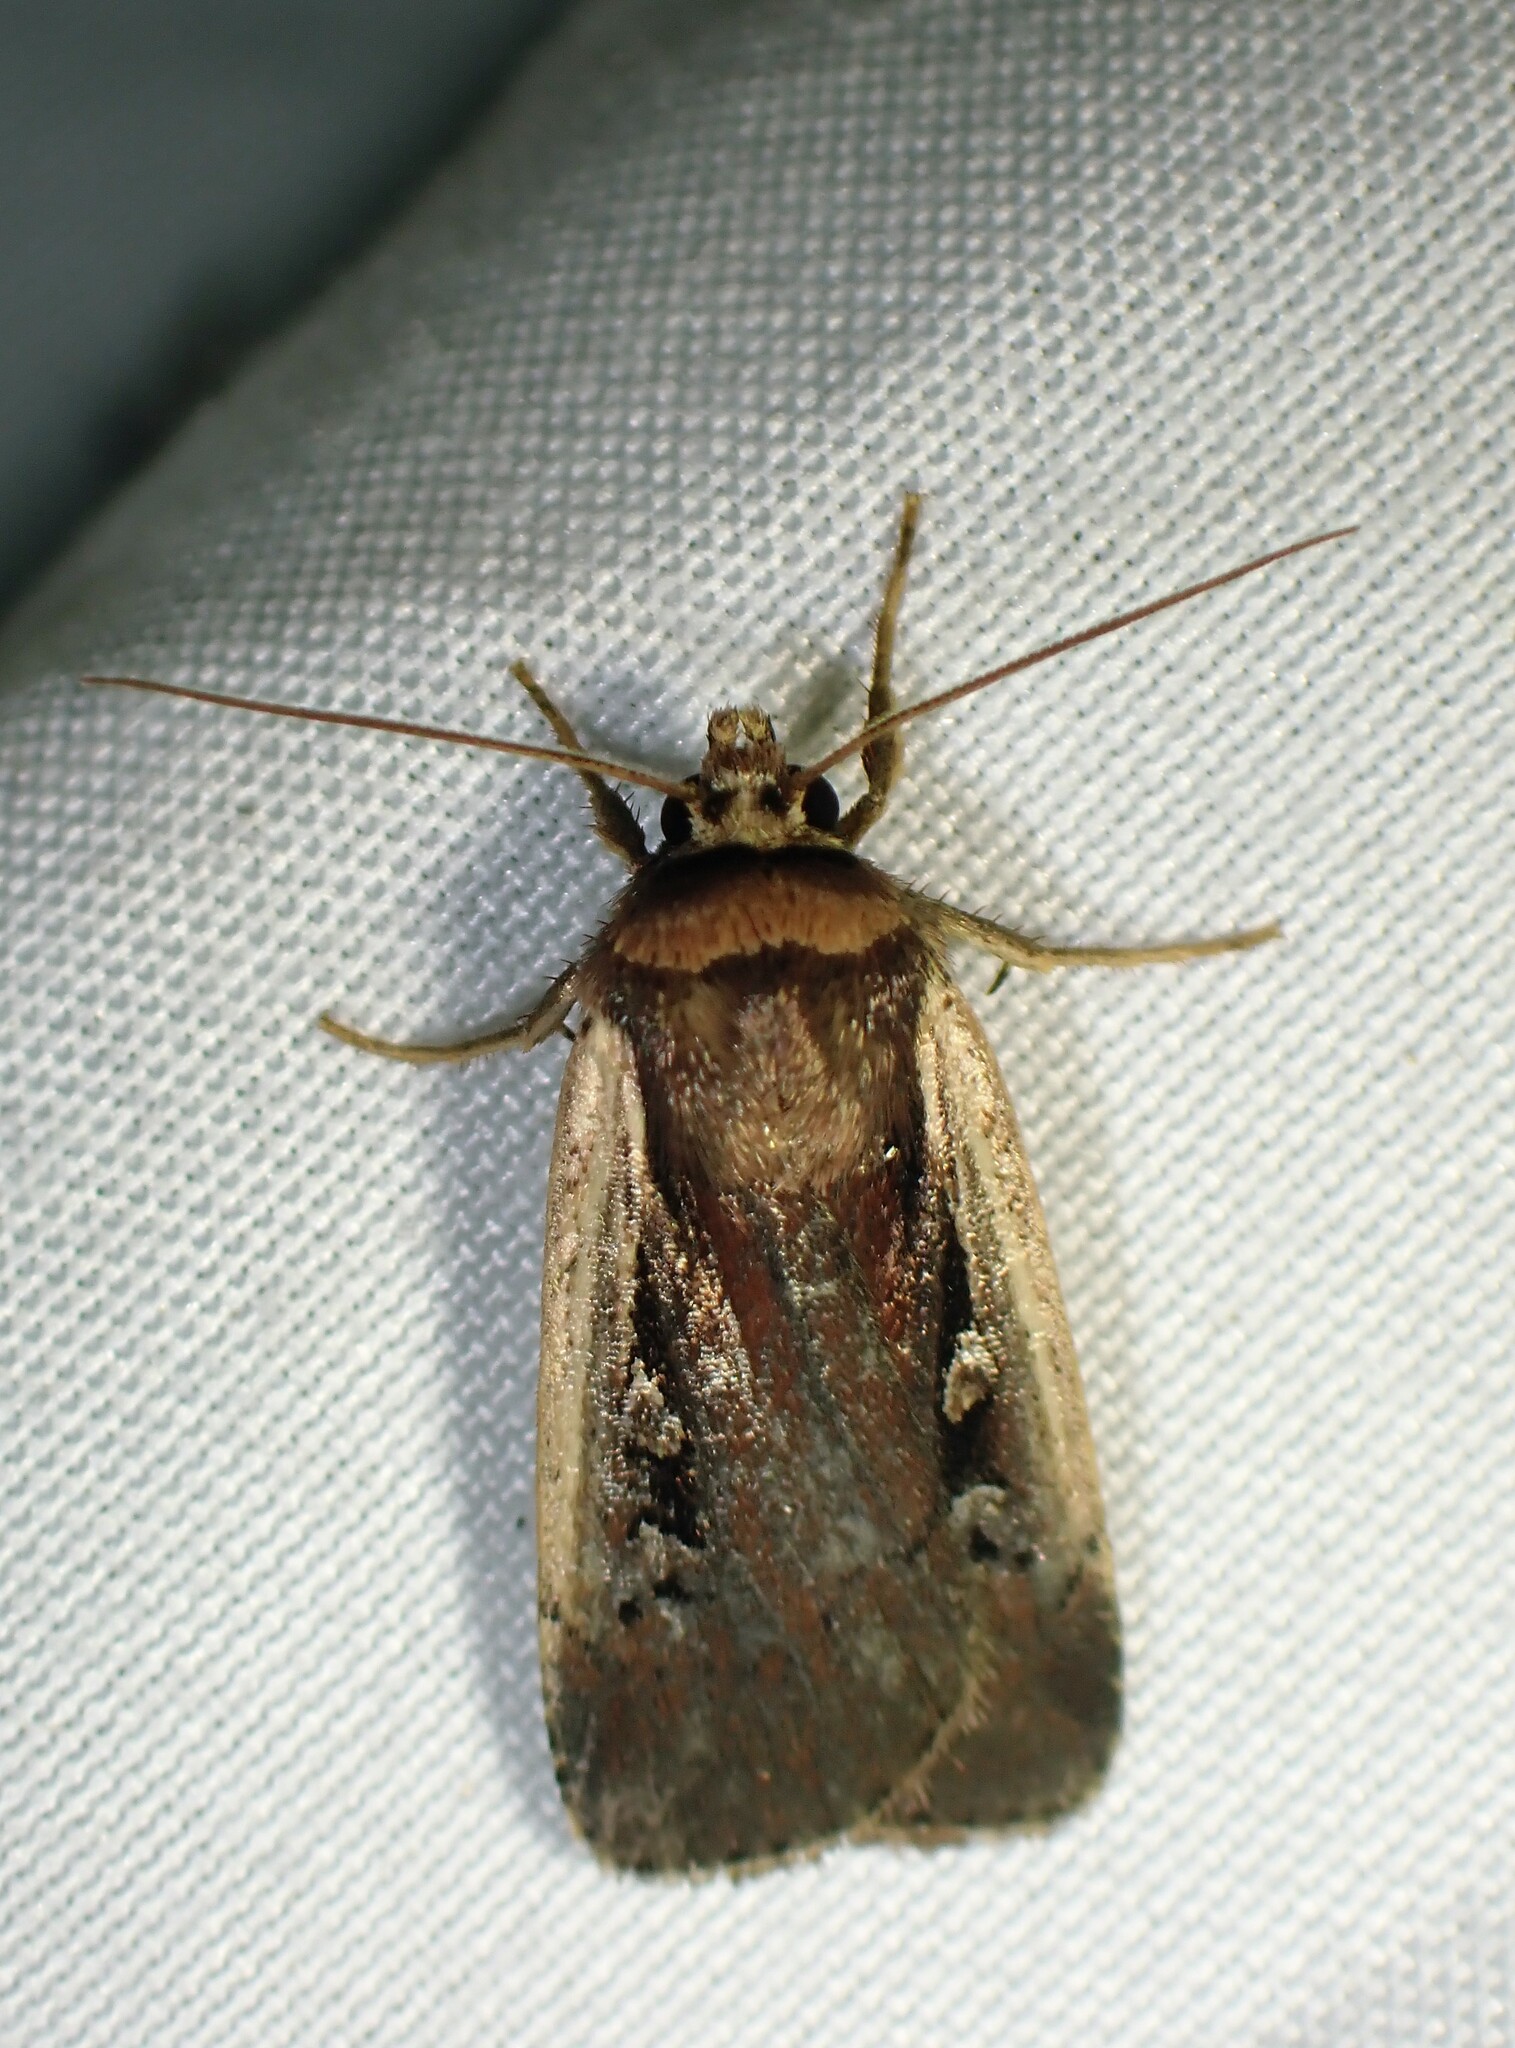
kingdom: Animalia
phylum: Arthropoda
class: Insecta
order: Lepidoptera
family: Noctuidae
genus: Ochropleura
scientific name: Ochropleura implecta
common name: Flame-shouldered dart
